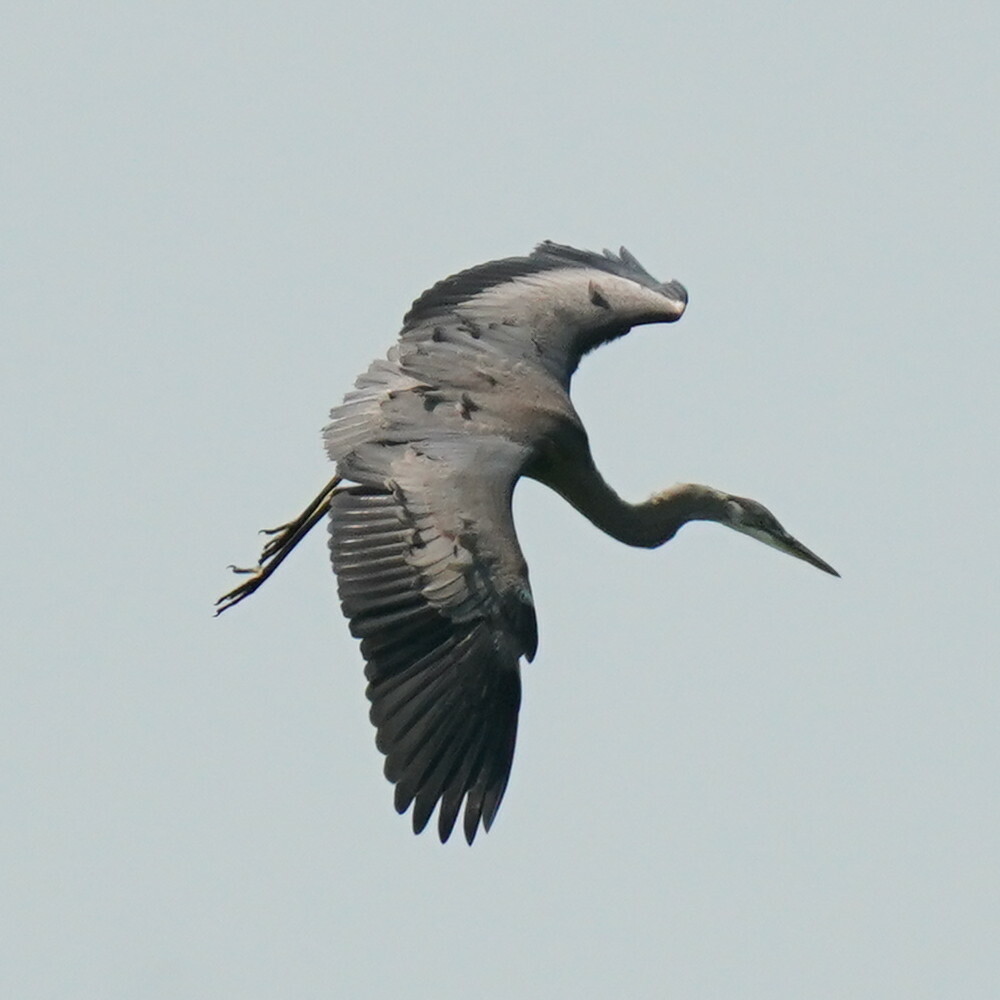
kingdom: Animalia
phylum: Chordata
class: Aves
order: Pelecaniformes
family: Ardeidae
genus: Ardea
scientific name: Ardea herodias
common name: Great blue heron
